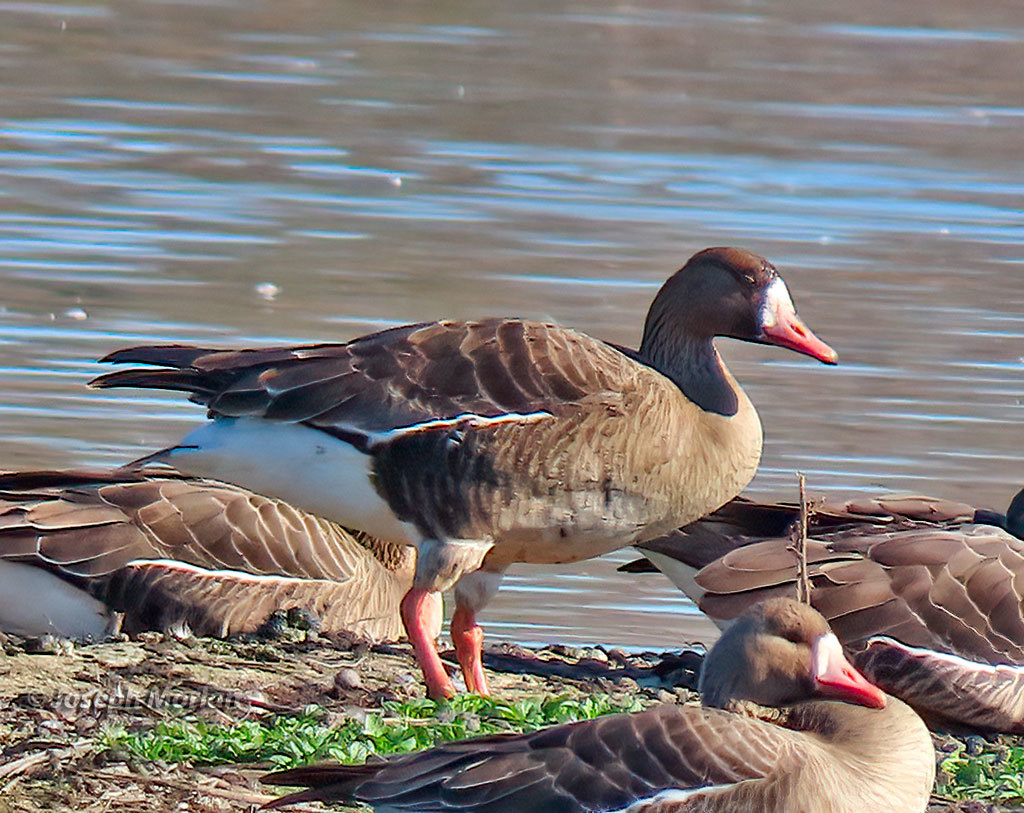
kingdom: Animalia
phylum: Chordata
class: Aves
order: Anseriformes
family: Anatidae
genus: Anser
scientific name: Anser albifrons
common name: Greater white-fronted goose
